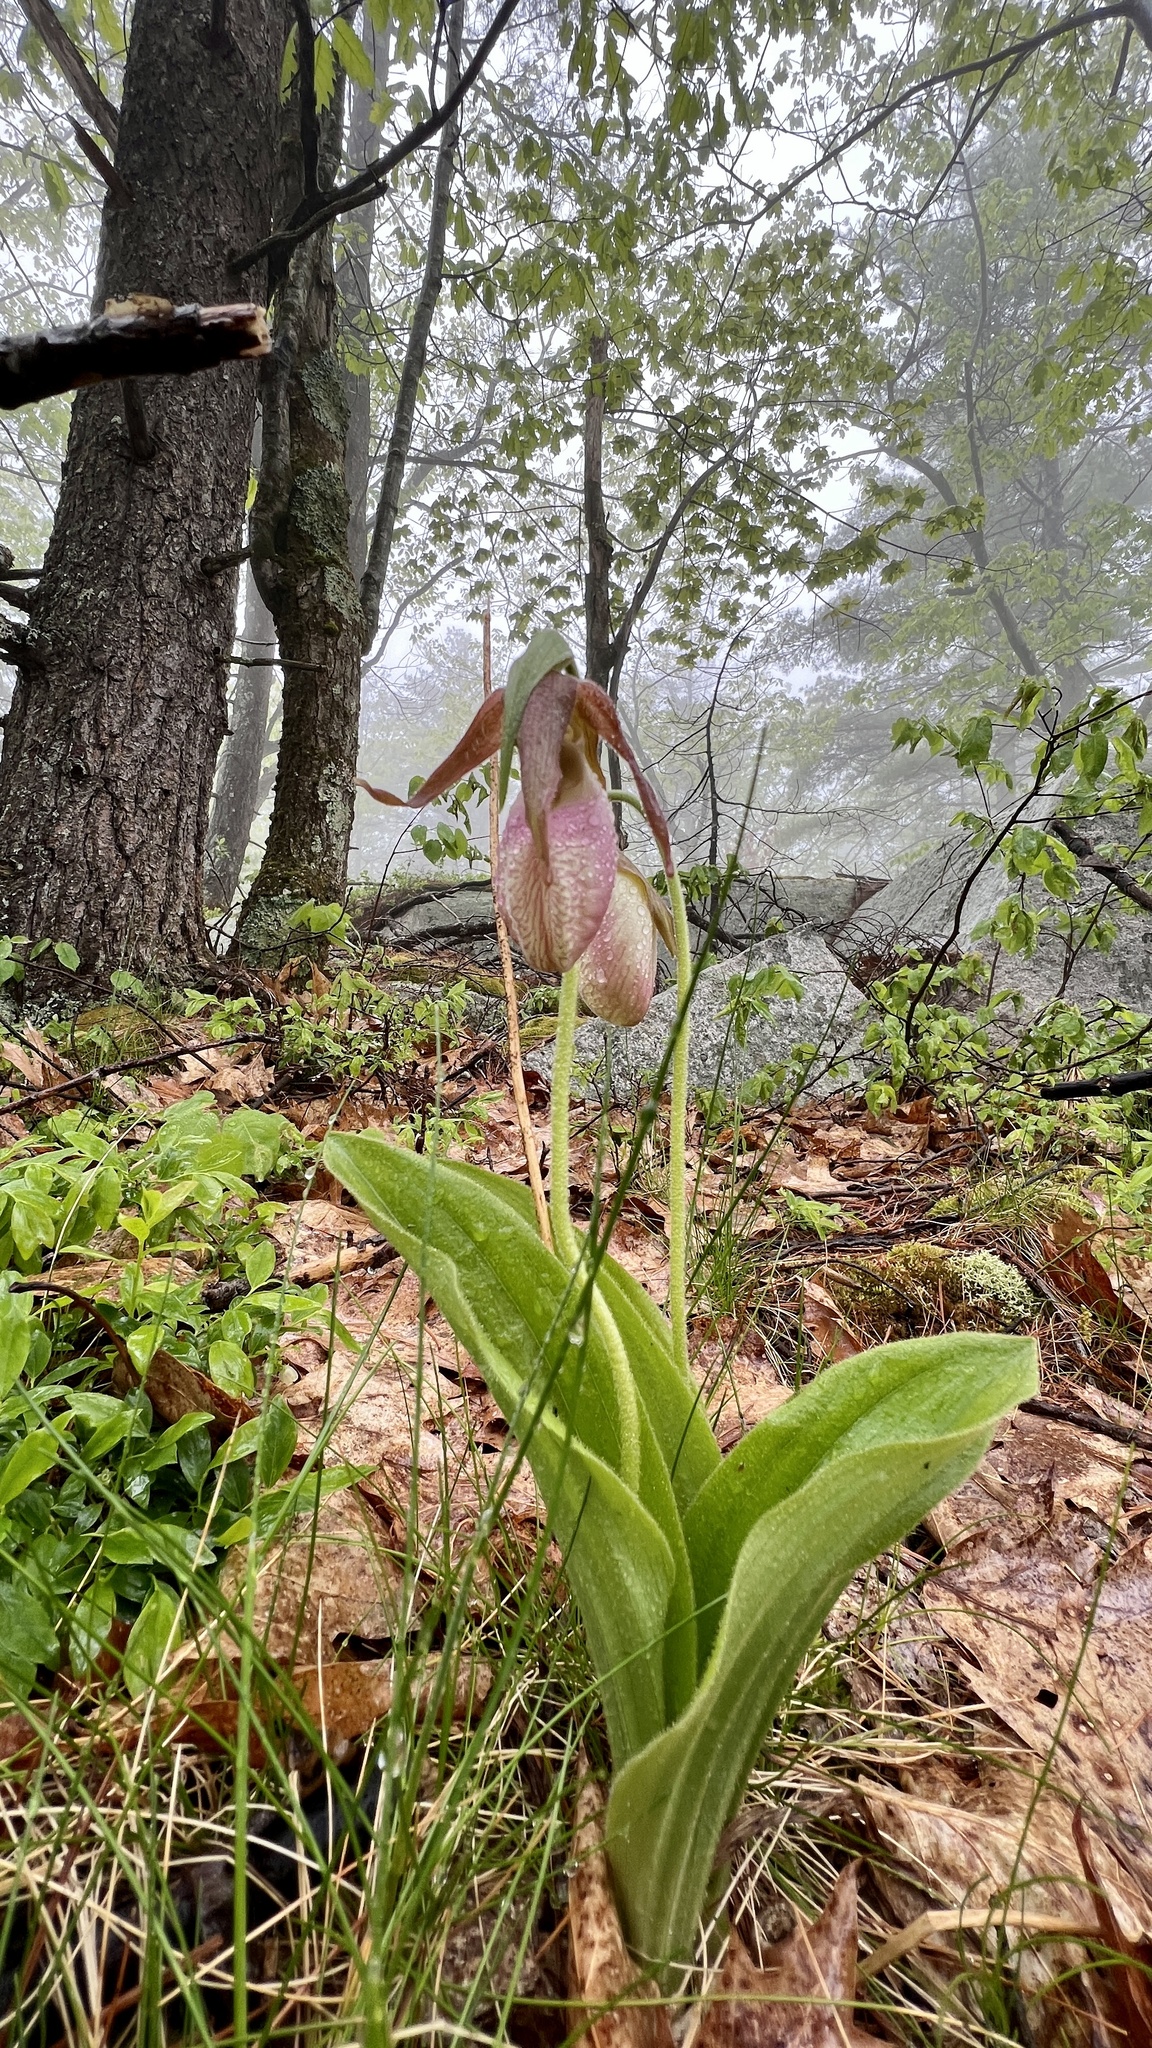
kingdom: Plantae
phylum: Tracheophyta
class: Liliopsida
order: Asparagales
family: Orchidaceae
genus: Cypripedium
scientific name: Cypripedium acaule
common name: Pink lady's-slipper
